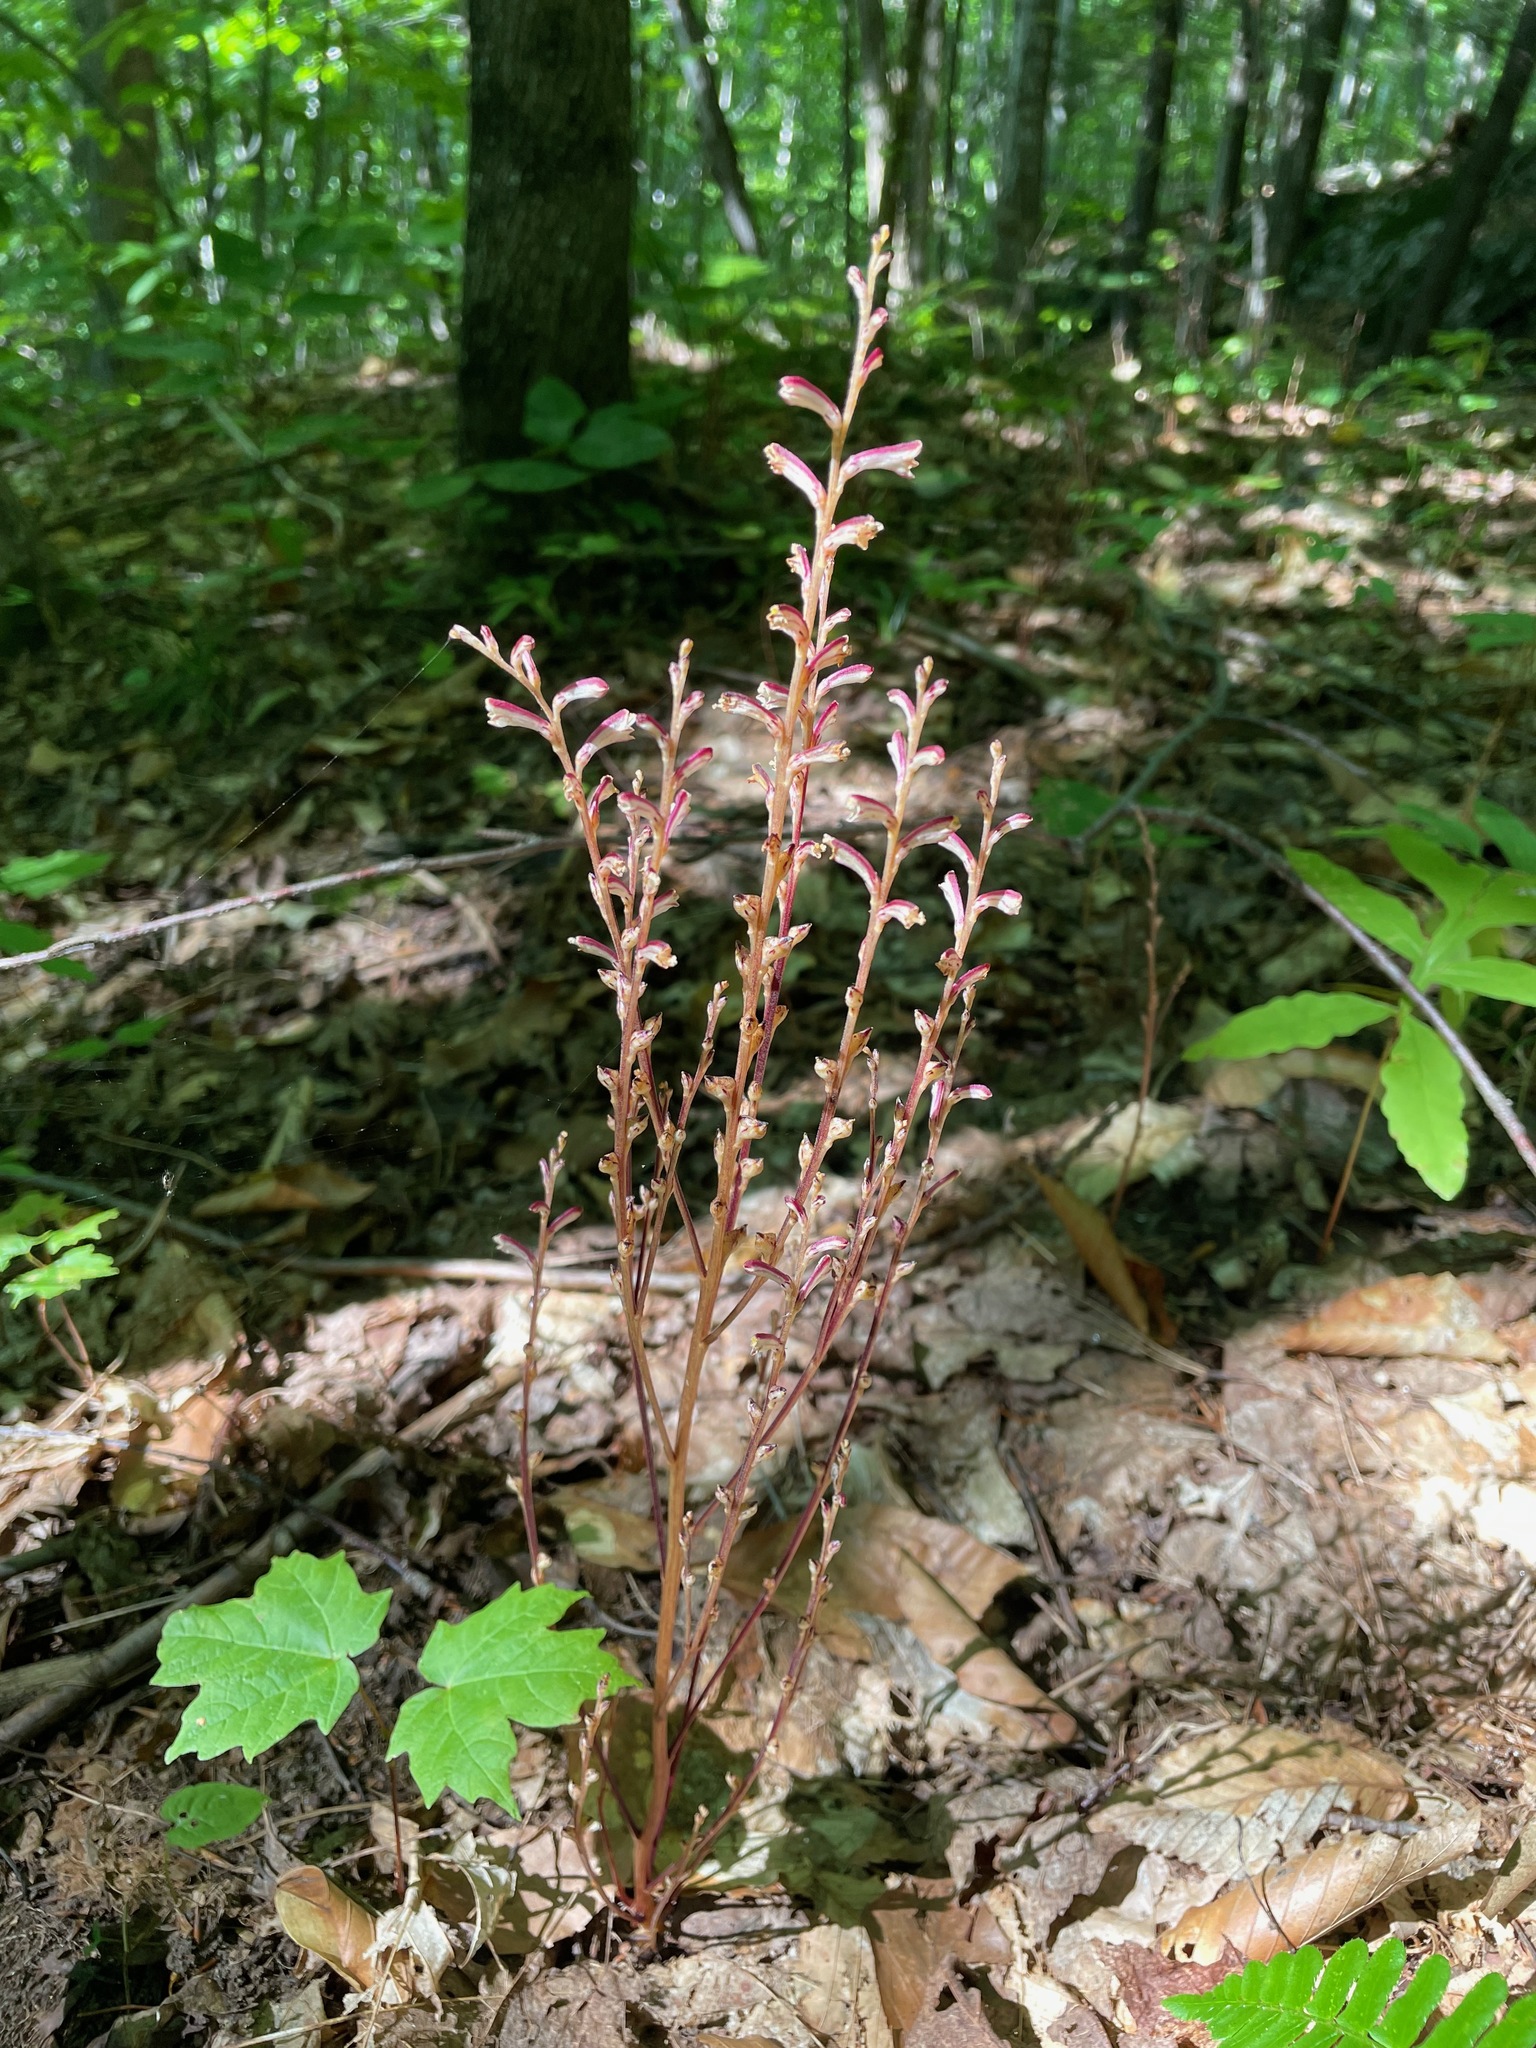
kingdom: Plantae
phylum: Tracheophyta
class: Magnoliopsida
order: Lamiales
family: Orobanchaceae
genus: Epifagus
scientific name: Epifagus virginiana
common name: Beechdrops
